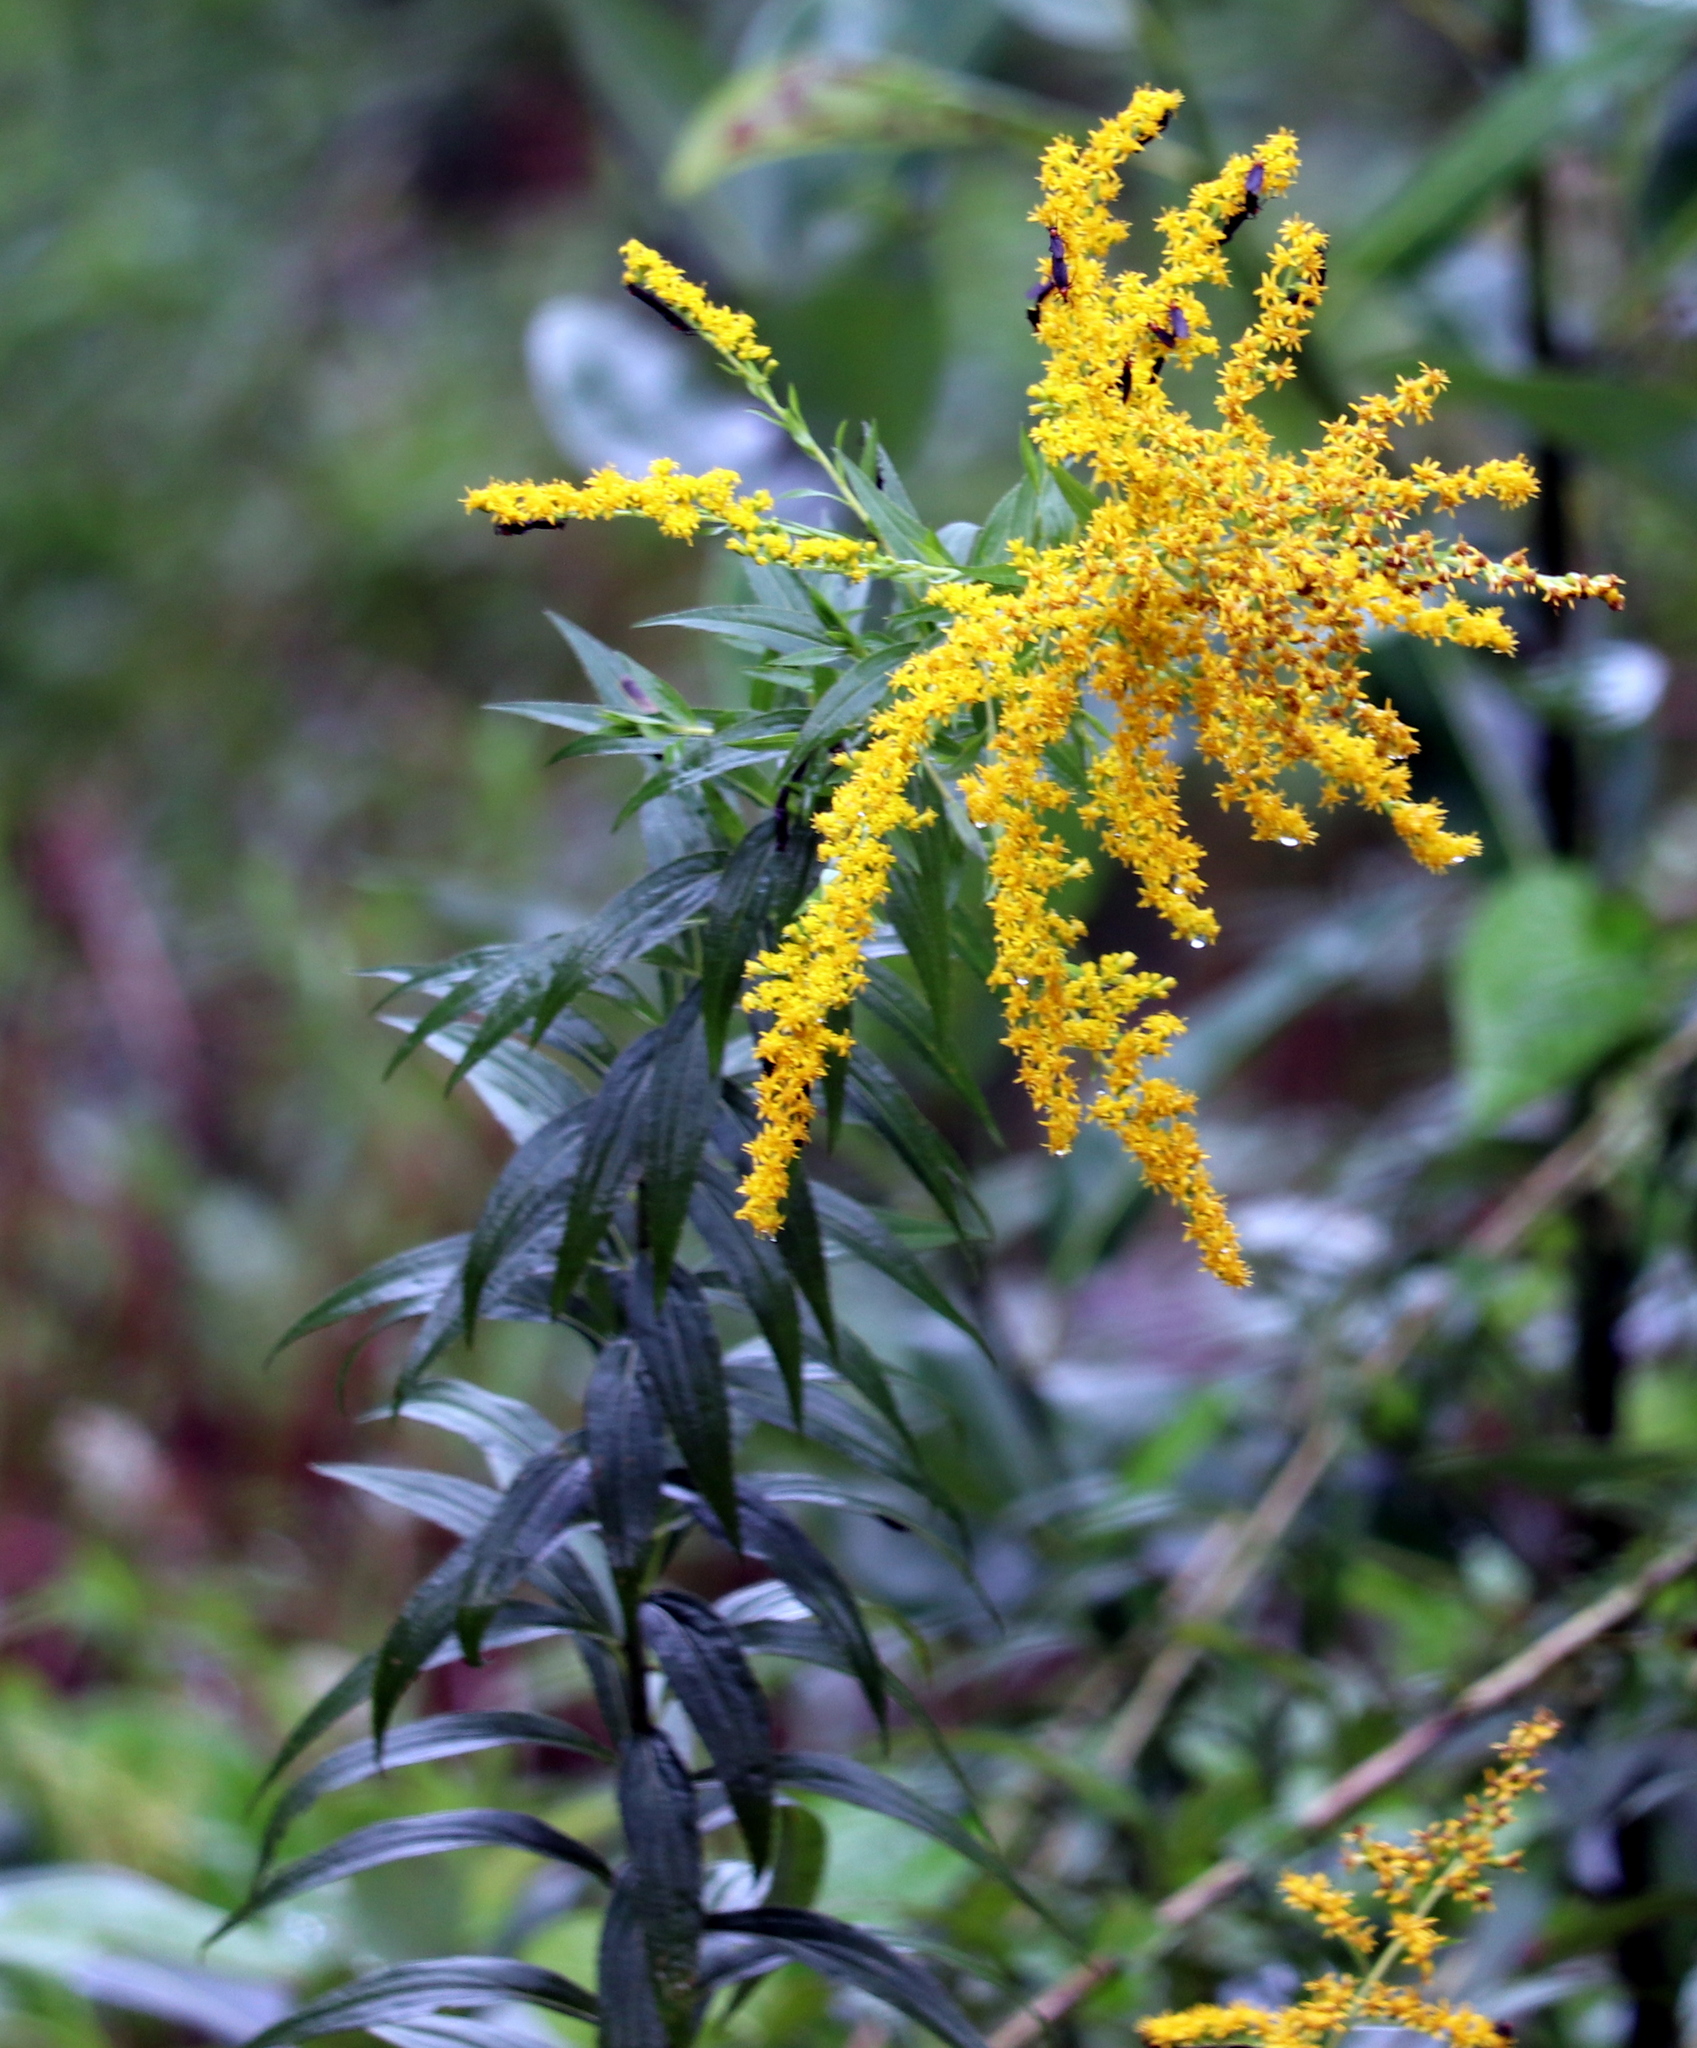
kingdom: Plantae
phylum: Tracheophyta
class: Magnoliopsida
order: Asterales
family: Asteraceae
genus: Solidago
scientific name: Solidago gigantea
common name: Giant goldenrod
